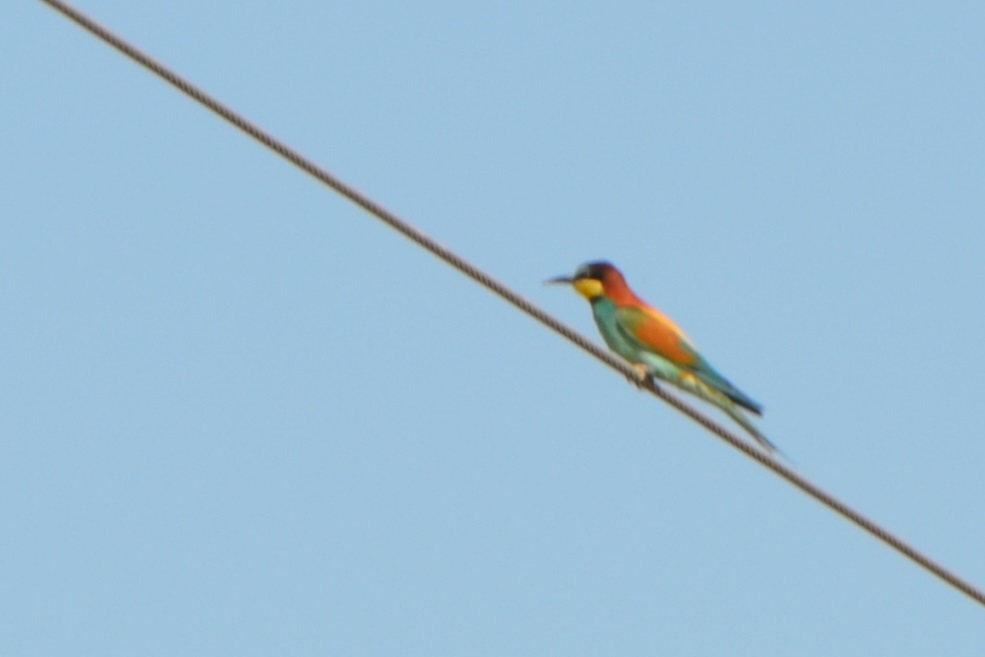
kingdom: Animalia
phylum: Chordata
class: Aves
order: Coraciiformes
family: Meropidae
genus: Merops
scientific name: Merops apiaster
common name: European bee-eater
